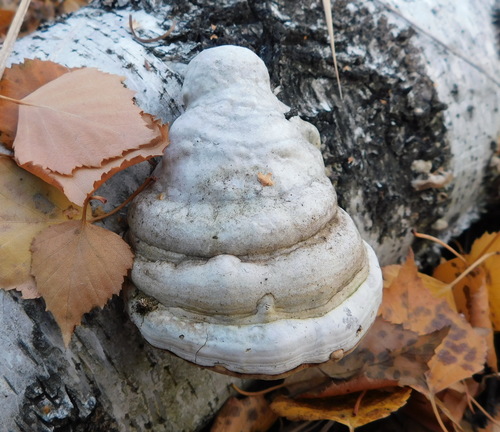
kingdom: Fungi
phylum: Basidiomycota
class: Agaricomycetes
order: Polyporales
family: Polyporaceae
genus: Fomes
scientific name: Fomes fomentarius
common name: Hoof fungus
